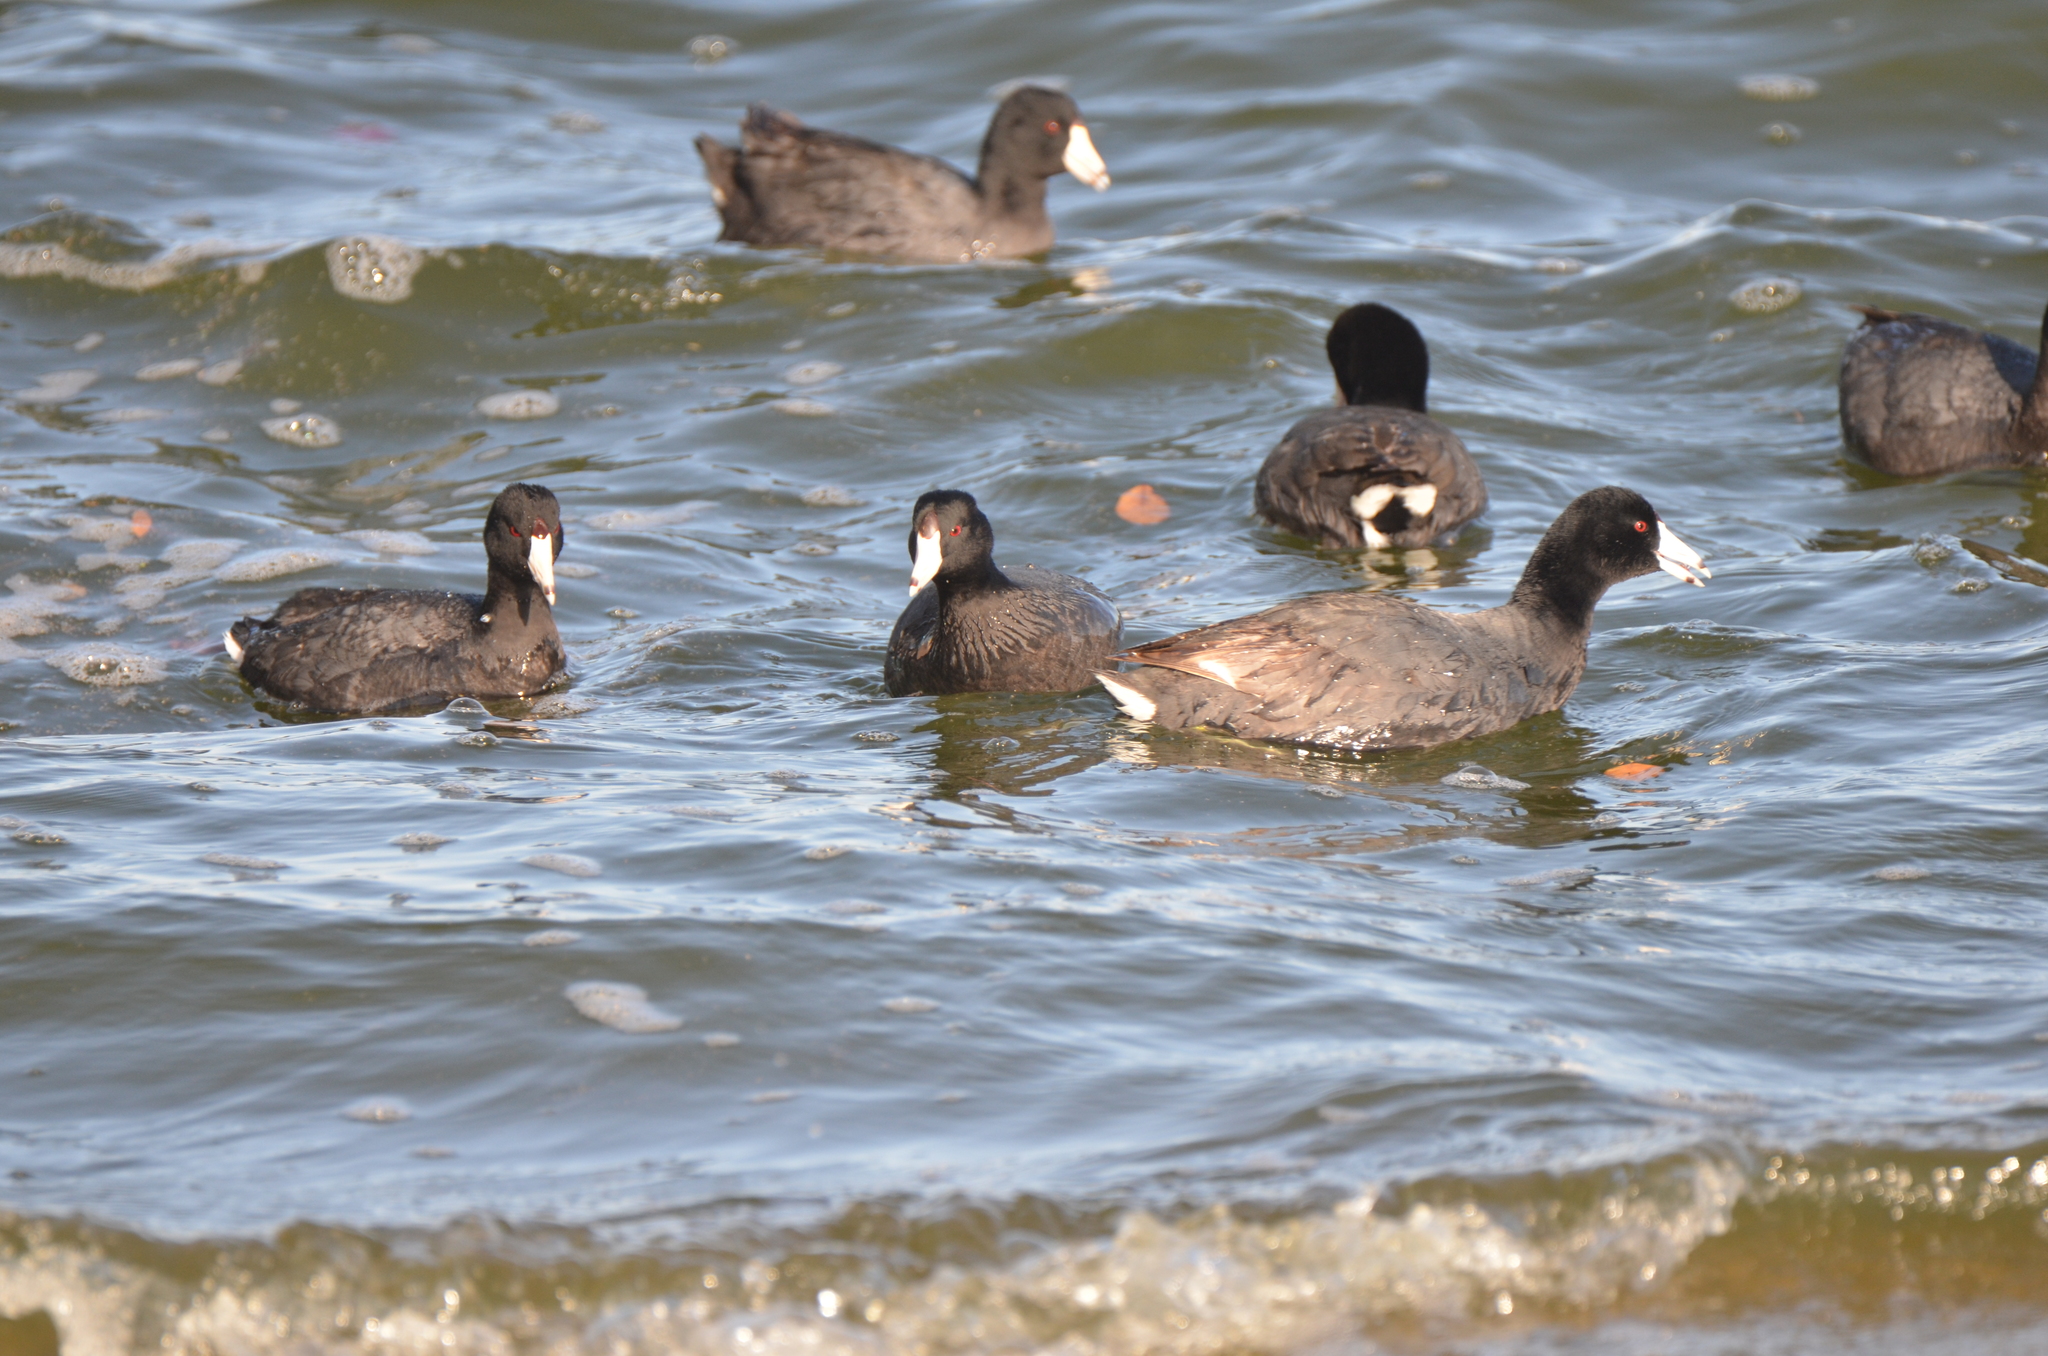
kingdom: Animalia
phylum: Chordata
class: Aves
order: Gruiformes
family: Rallidae
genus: Fulica
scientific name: Fulica americana
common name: American coot
